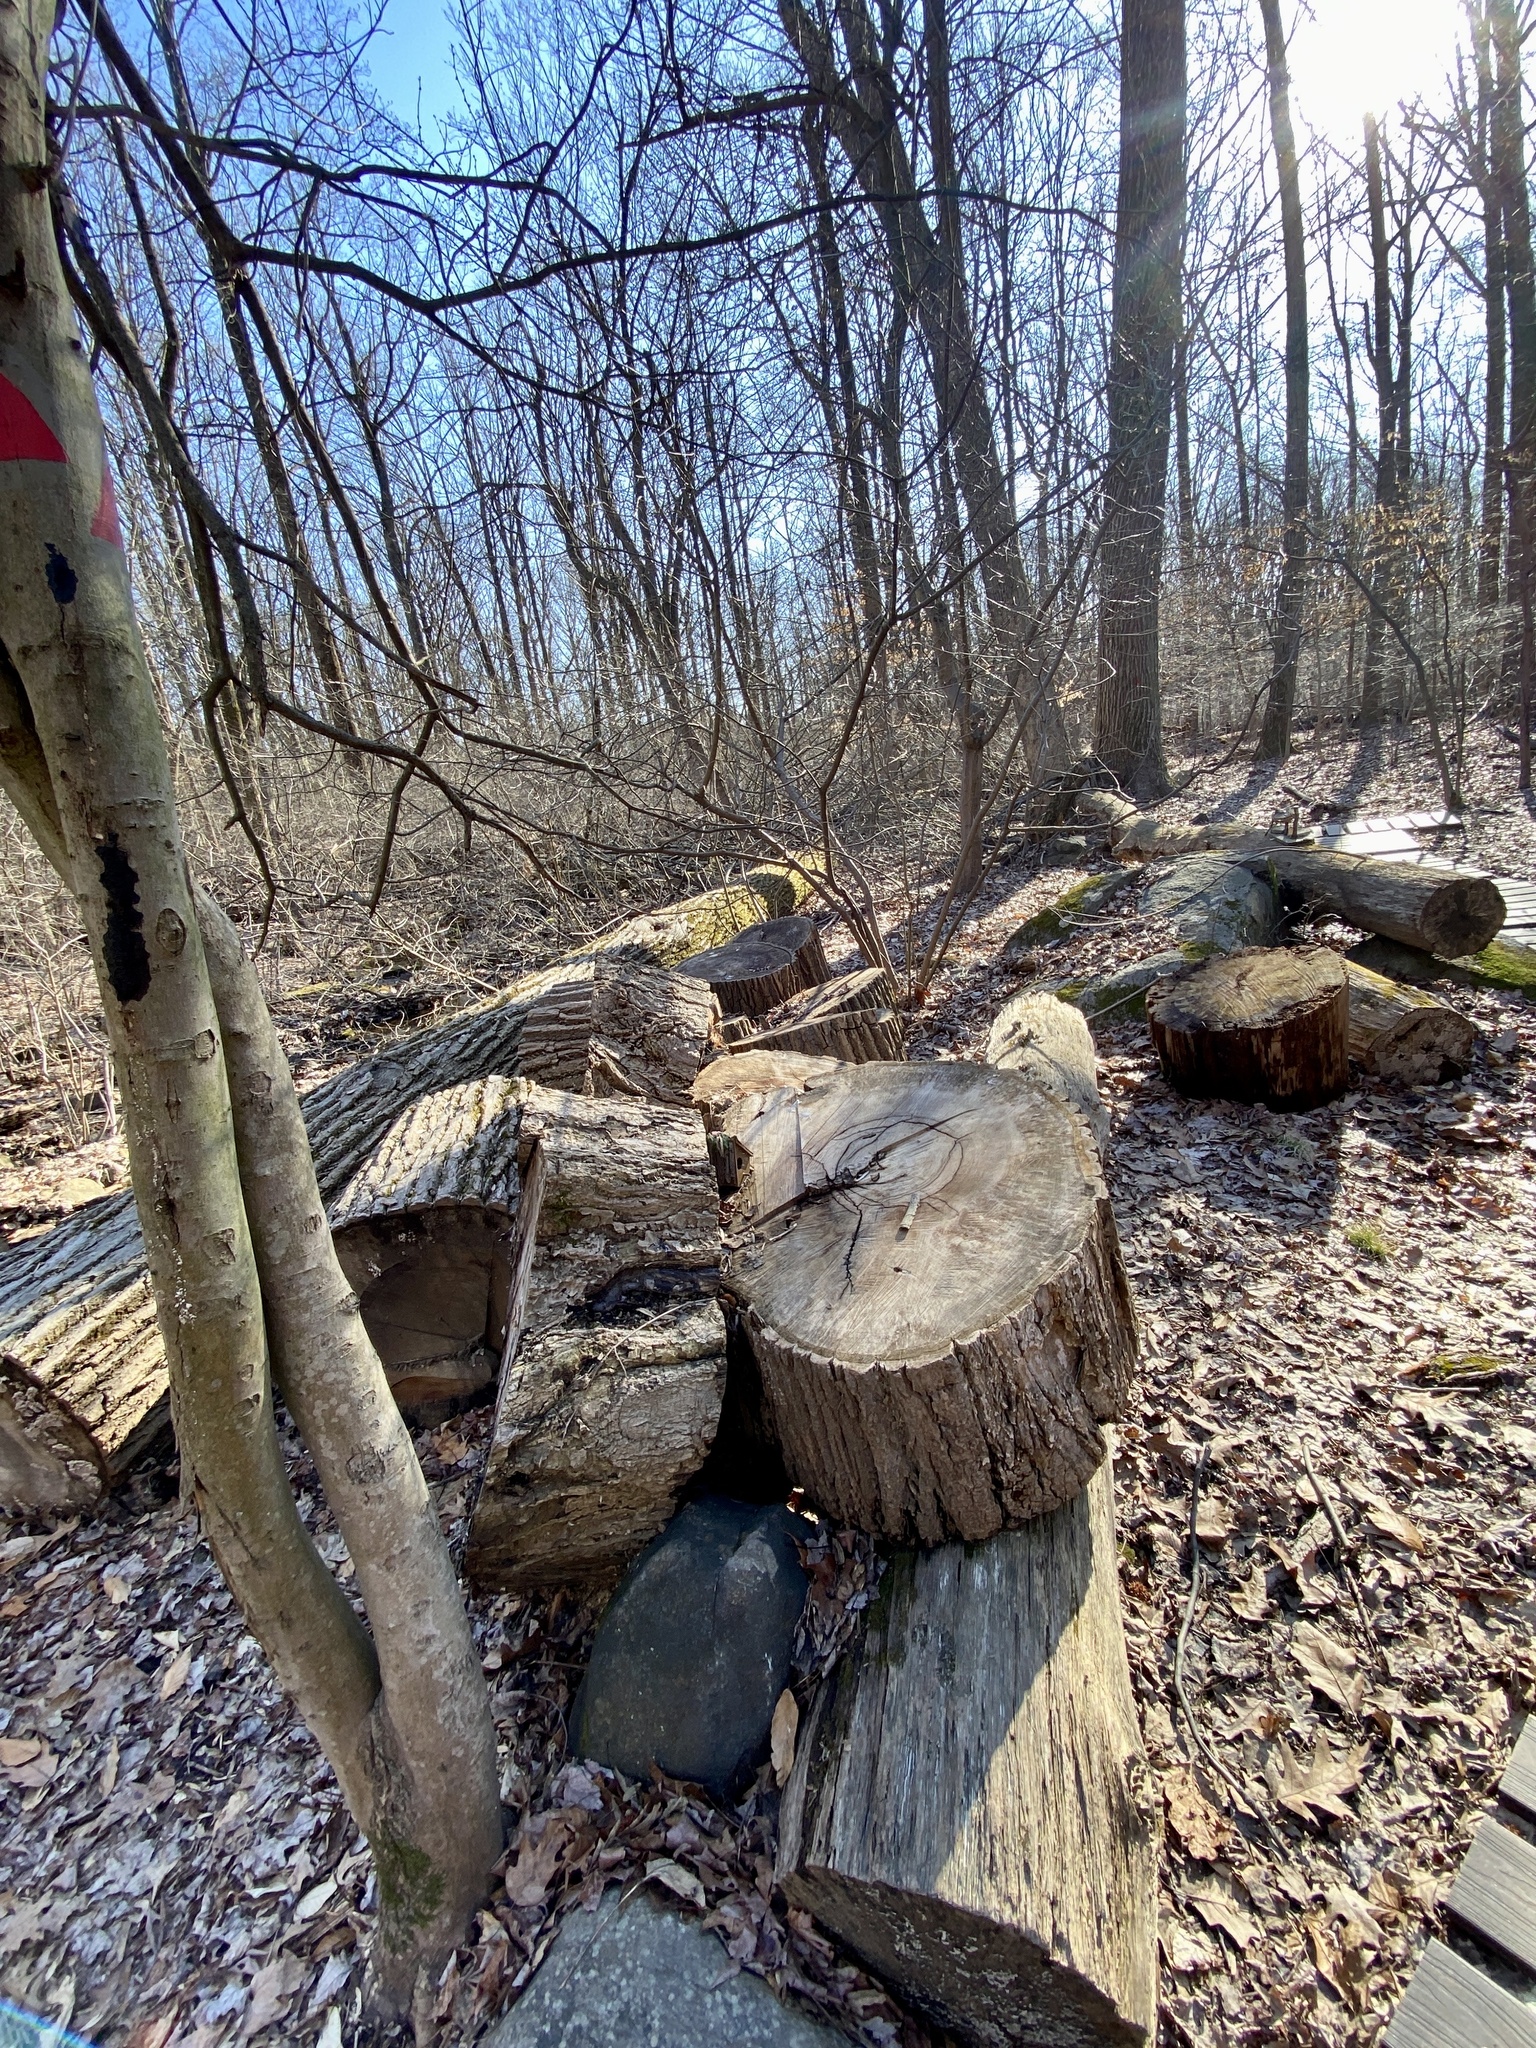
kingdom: Fungi
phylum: Basidiomycota
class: Agaricomycetes
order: Russulales
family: Stereaceae
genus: Xylobolus
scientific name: Xylobolus frustulatus
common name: Ceramic parchment
